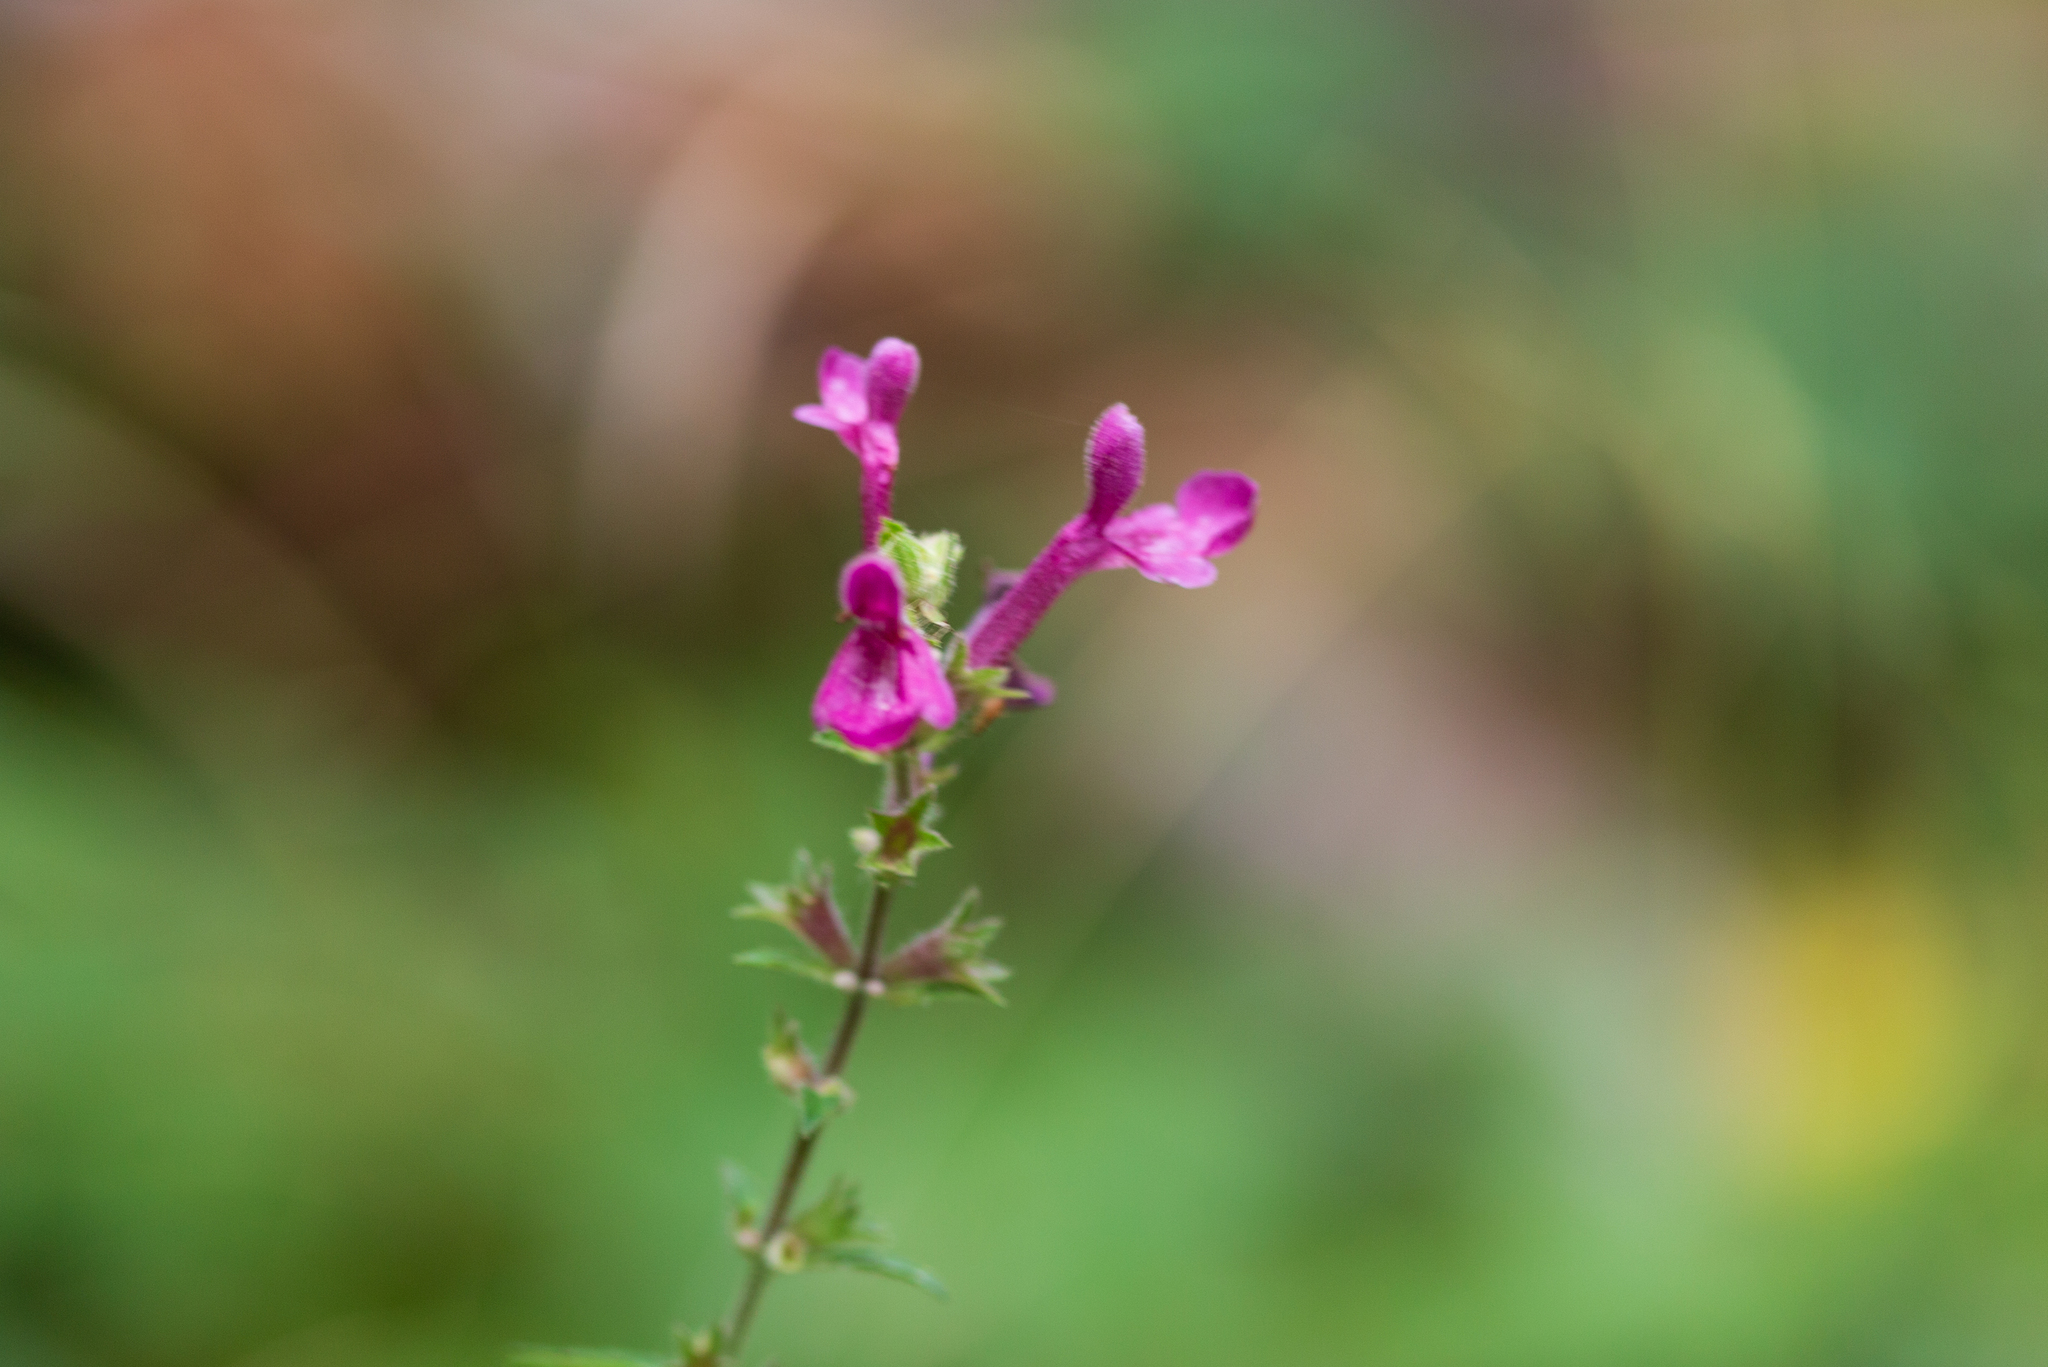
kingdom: Plantae
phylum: Tracheophyta
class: Magnoliopsida
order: Lamiales
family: Lamiaceae
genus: Stachys
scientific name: Stachys chamissonis
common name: Coastal hedge-nettle
